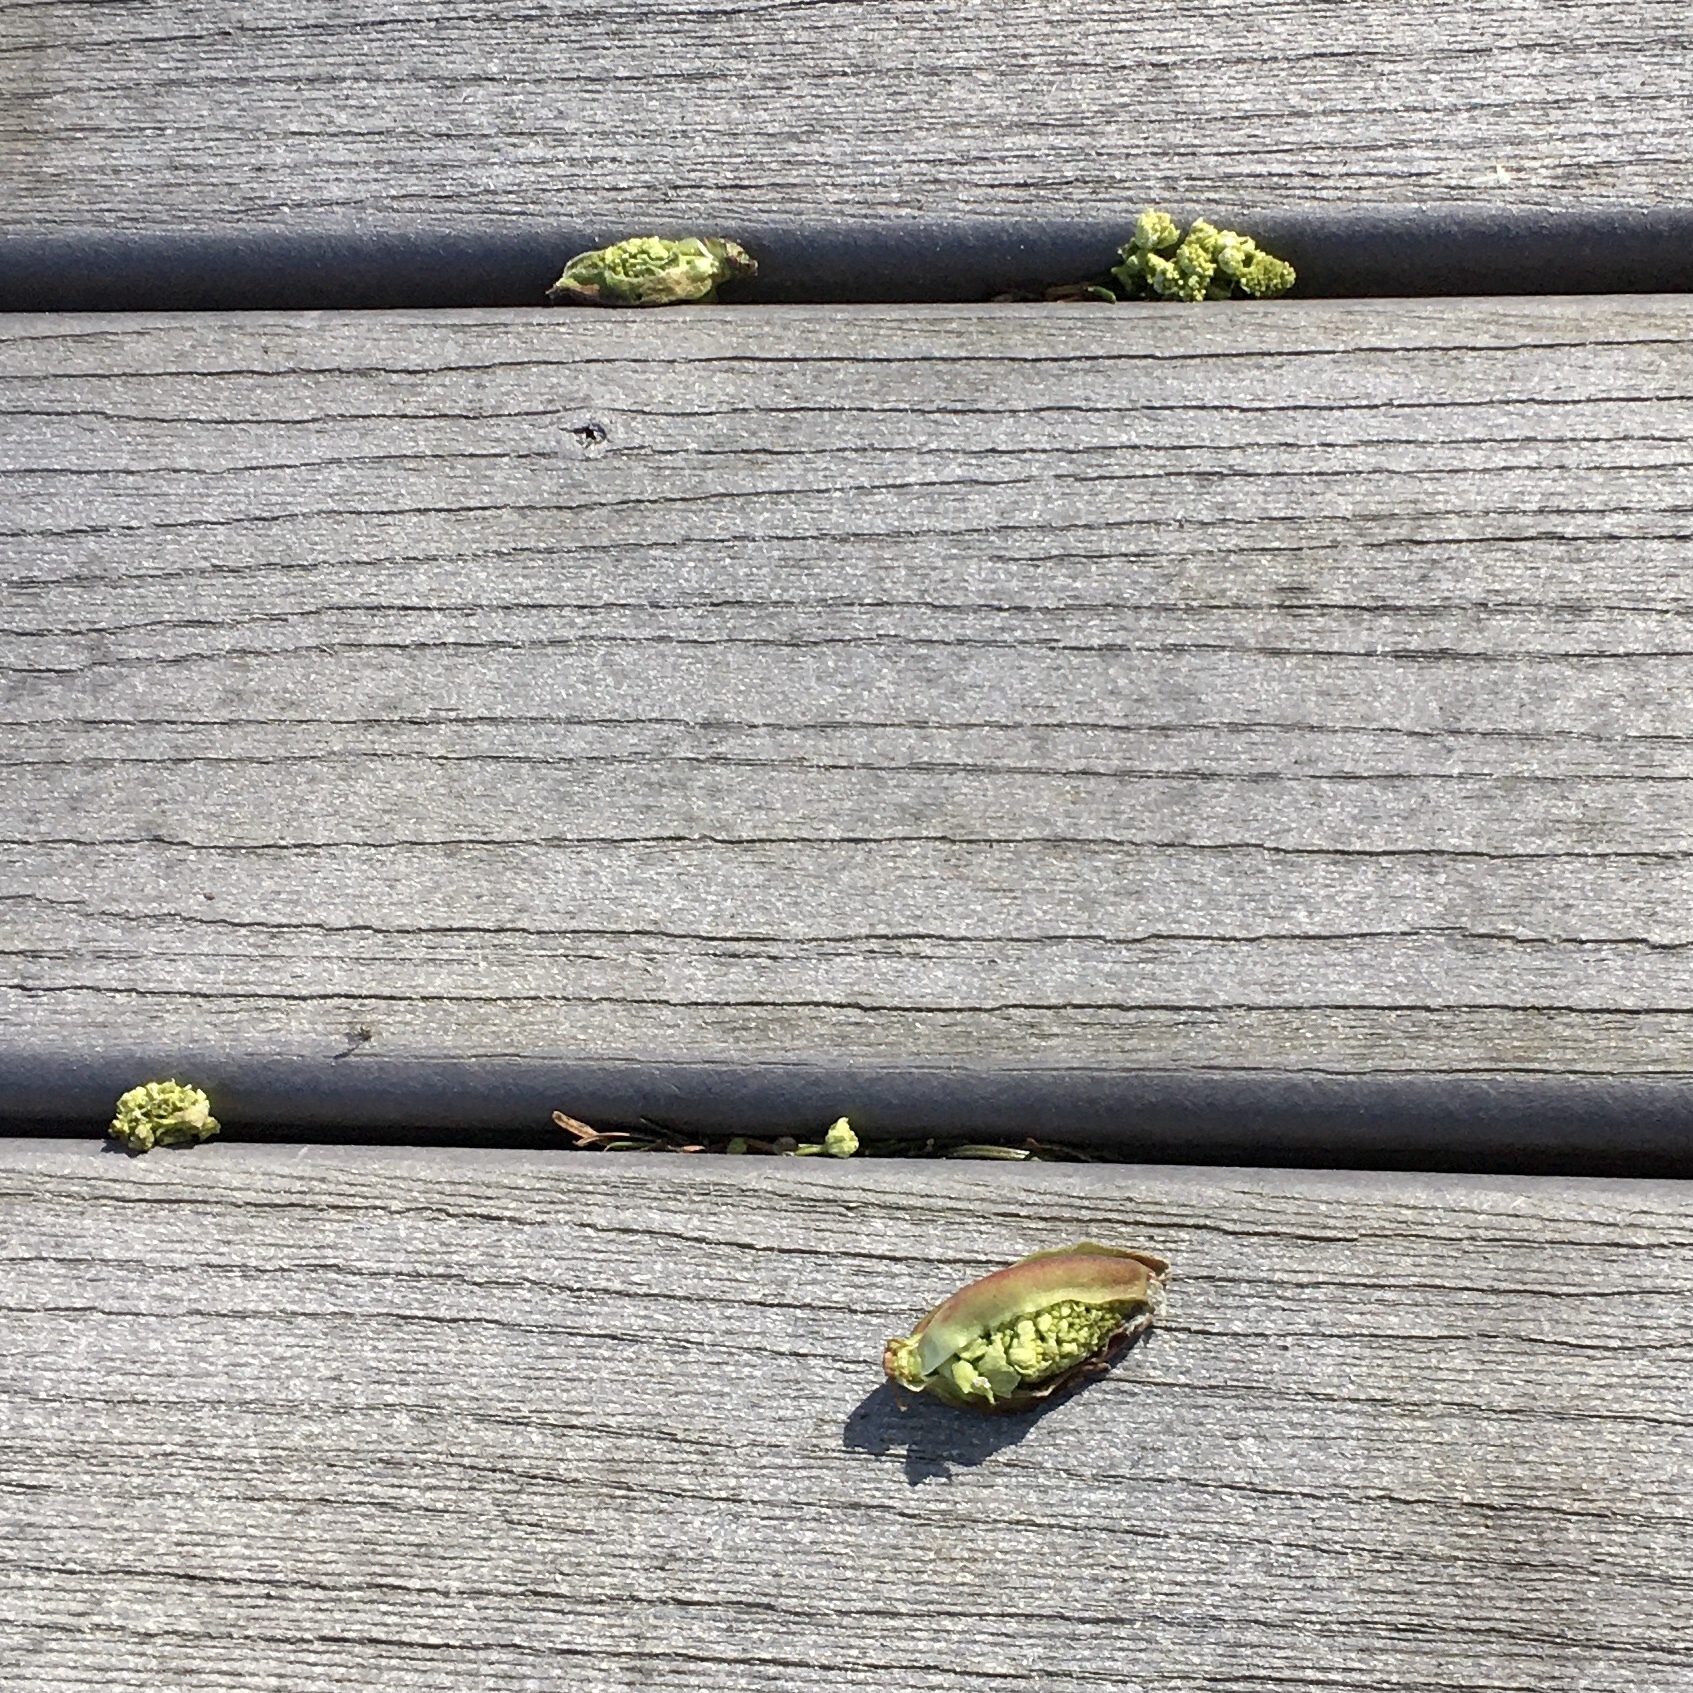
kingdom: Plantae
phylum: Tracheophyta
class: Magnoliopsida
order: Sapindales
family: Sapindaceae
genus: Acer
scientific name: Acer macrophyllum
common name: Oregon maple
